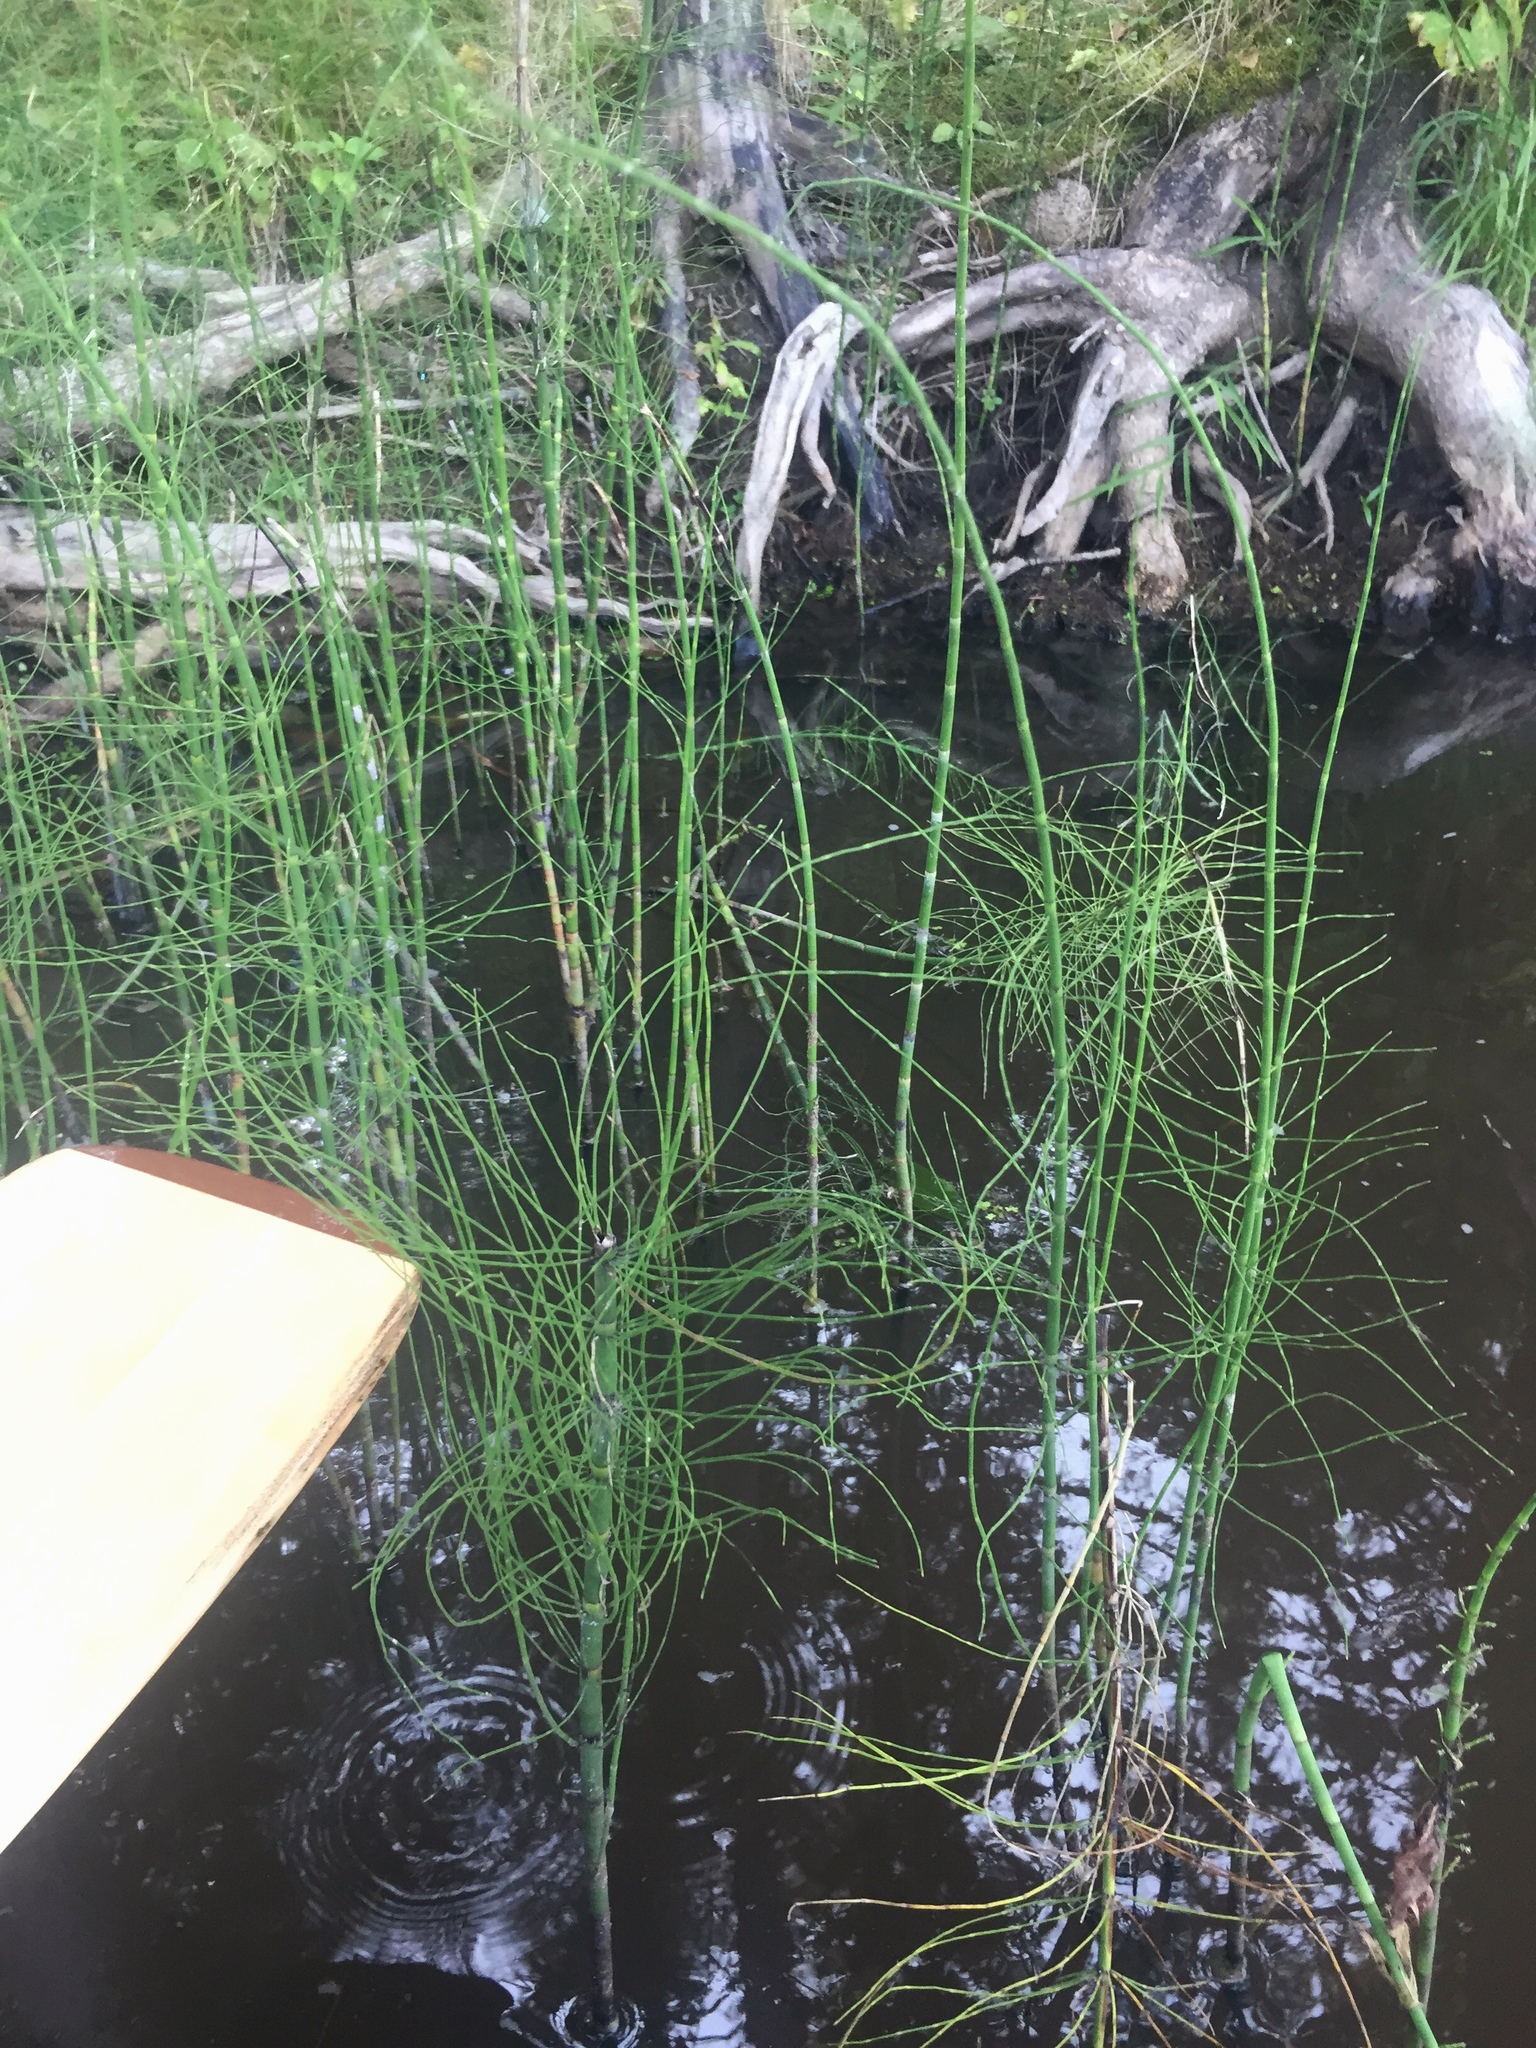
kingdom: Plantae
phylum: Tracheophyta
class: Polypodiopsida
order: Equisetales
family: Equisetaceae
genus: Equisetum
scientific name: Equisetum fluviatile
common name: Water horsetail
